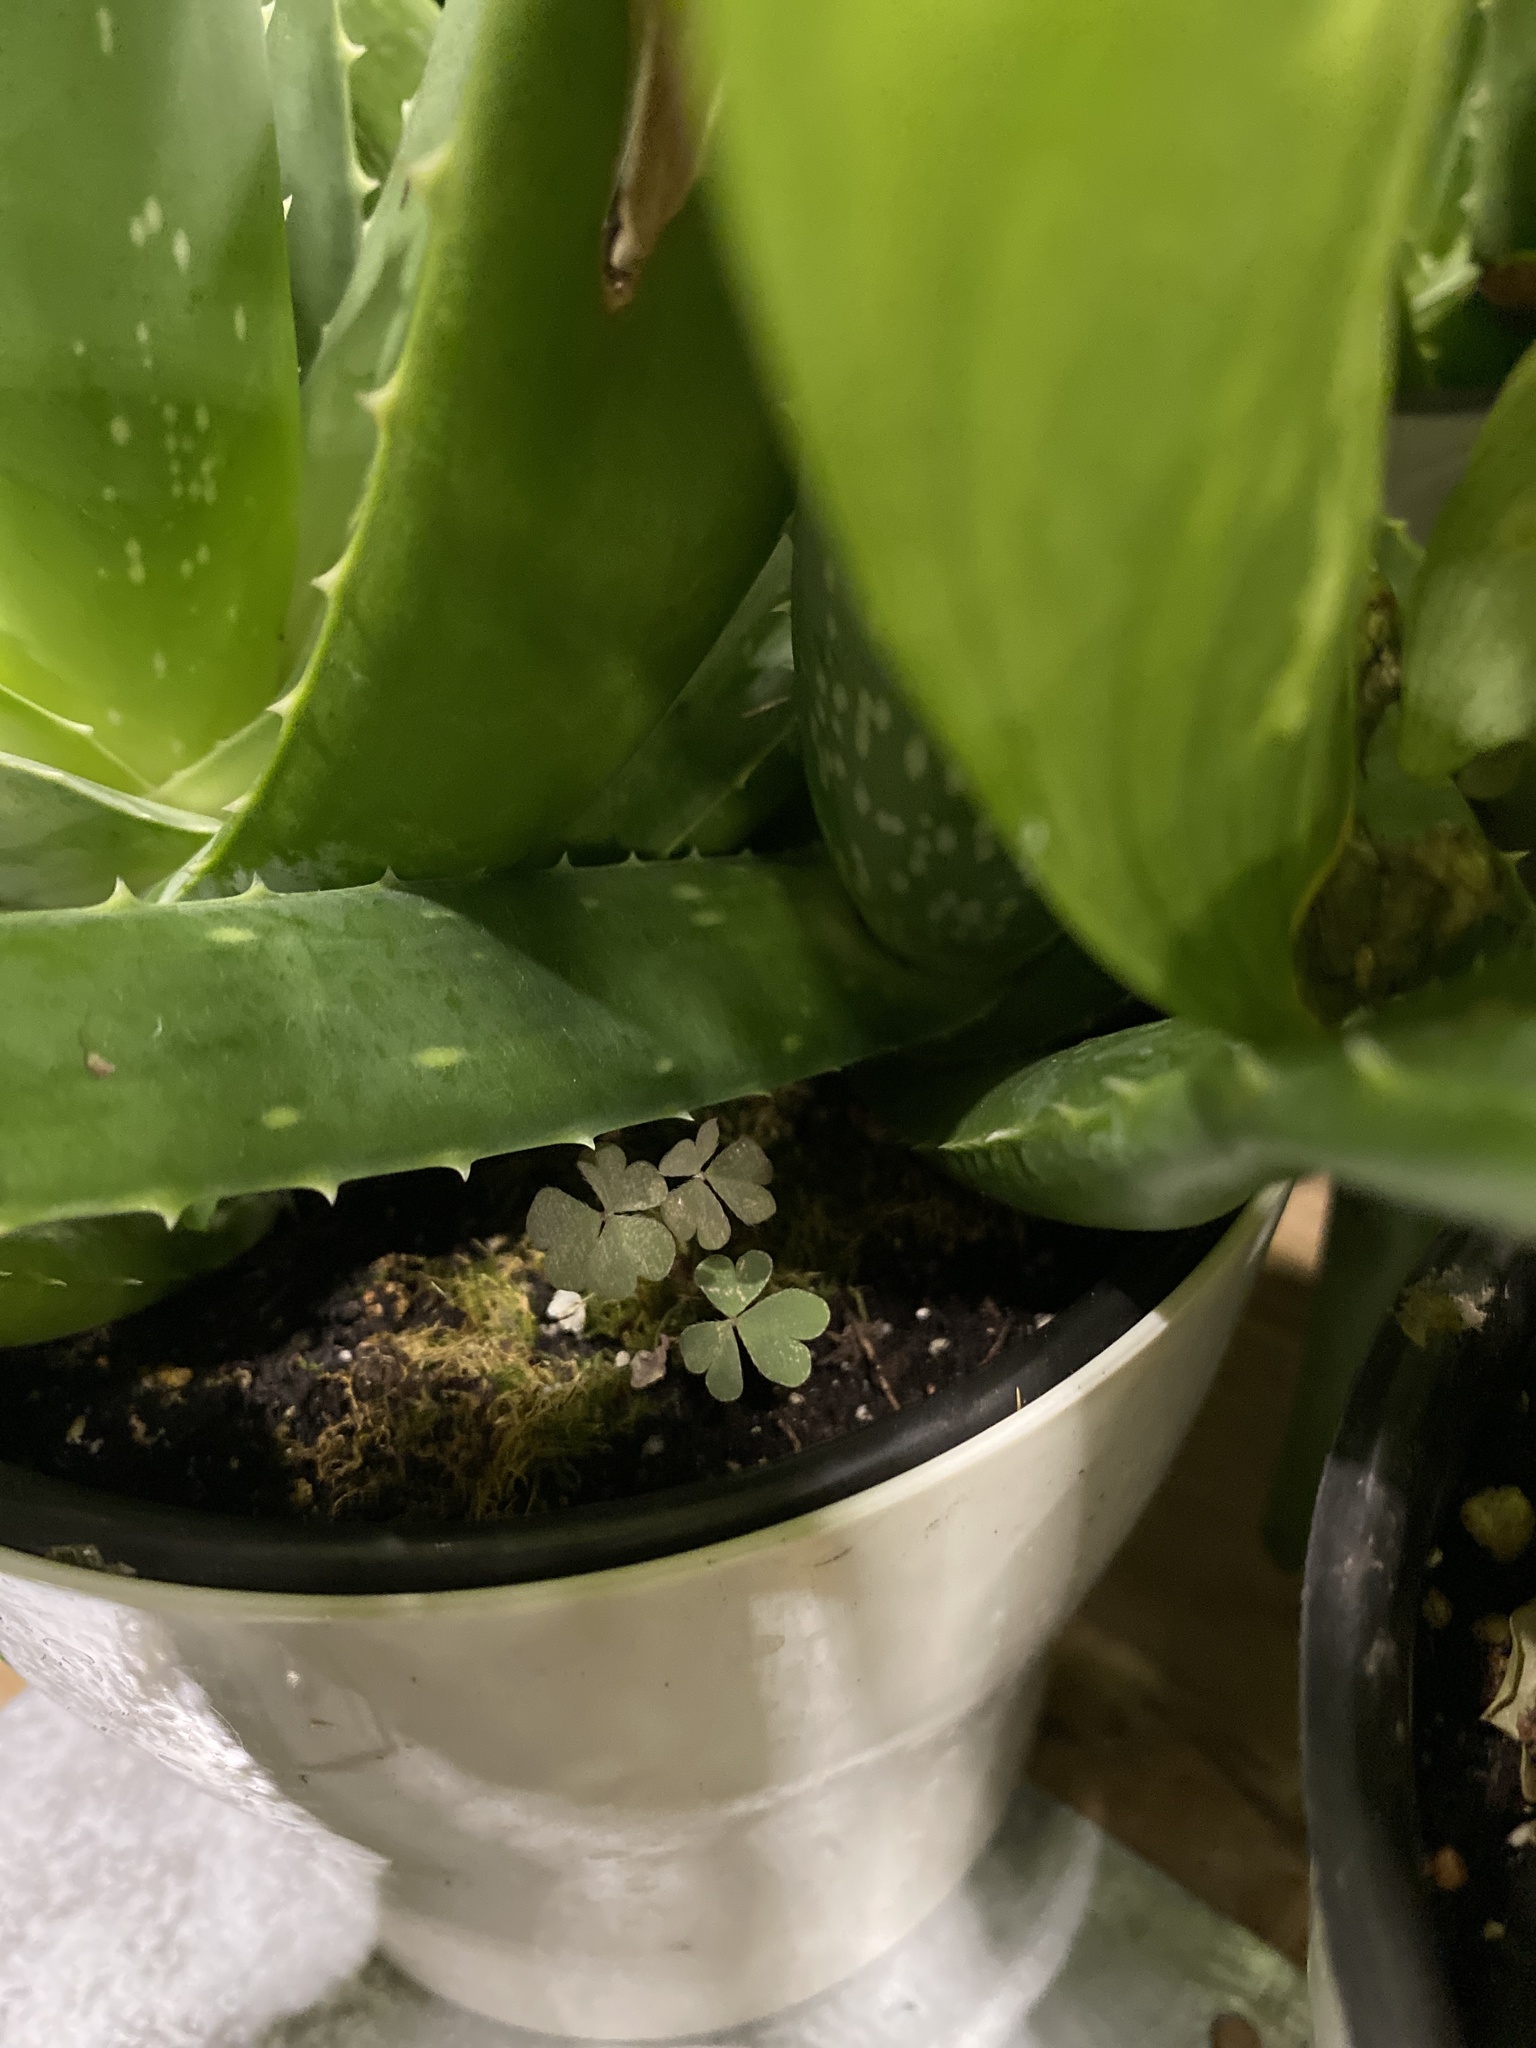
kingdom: Plantae
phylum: Tracheophyta
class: Magnoliopsida
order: Oxalidales
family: Oxalidaceae
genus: Oxalis
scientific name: Oxalis corniculata
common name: Procumbent yellow-sorrel
